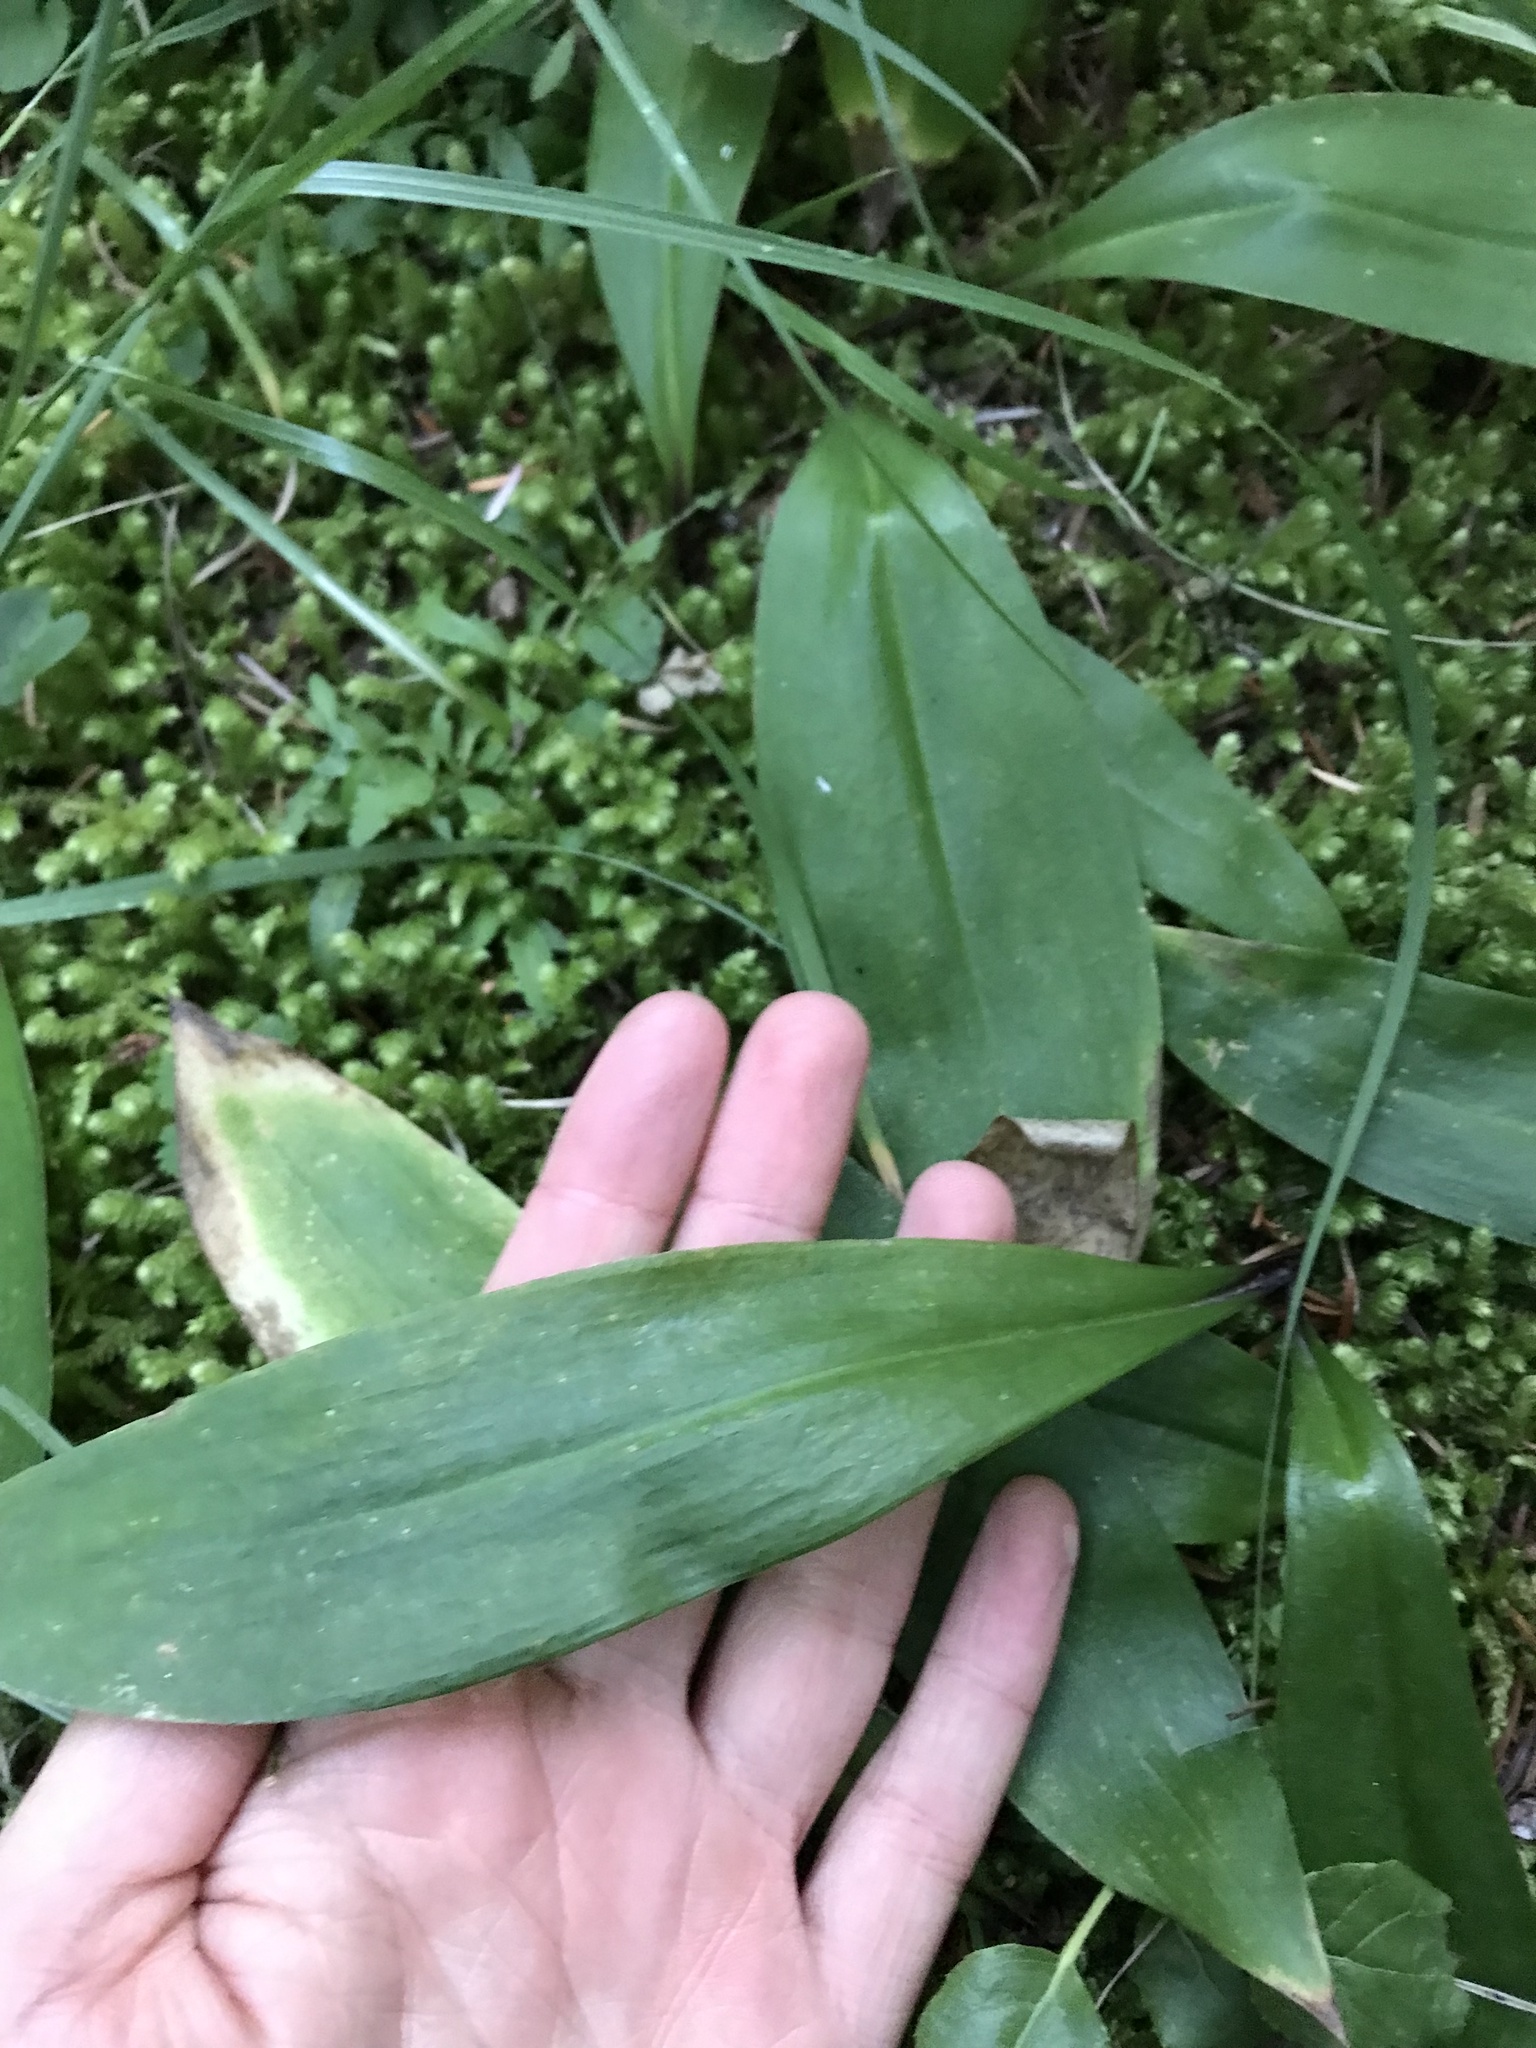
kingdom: Plantae
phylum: Tracheophyta
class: Liliopsida
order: Liliales
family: Liliaceae
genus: Clintonia
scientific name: Clintonia uniflora
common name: Queen's cup
